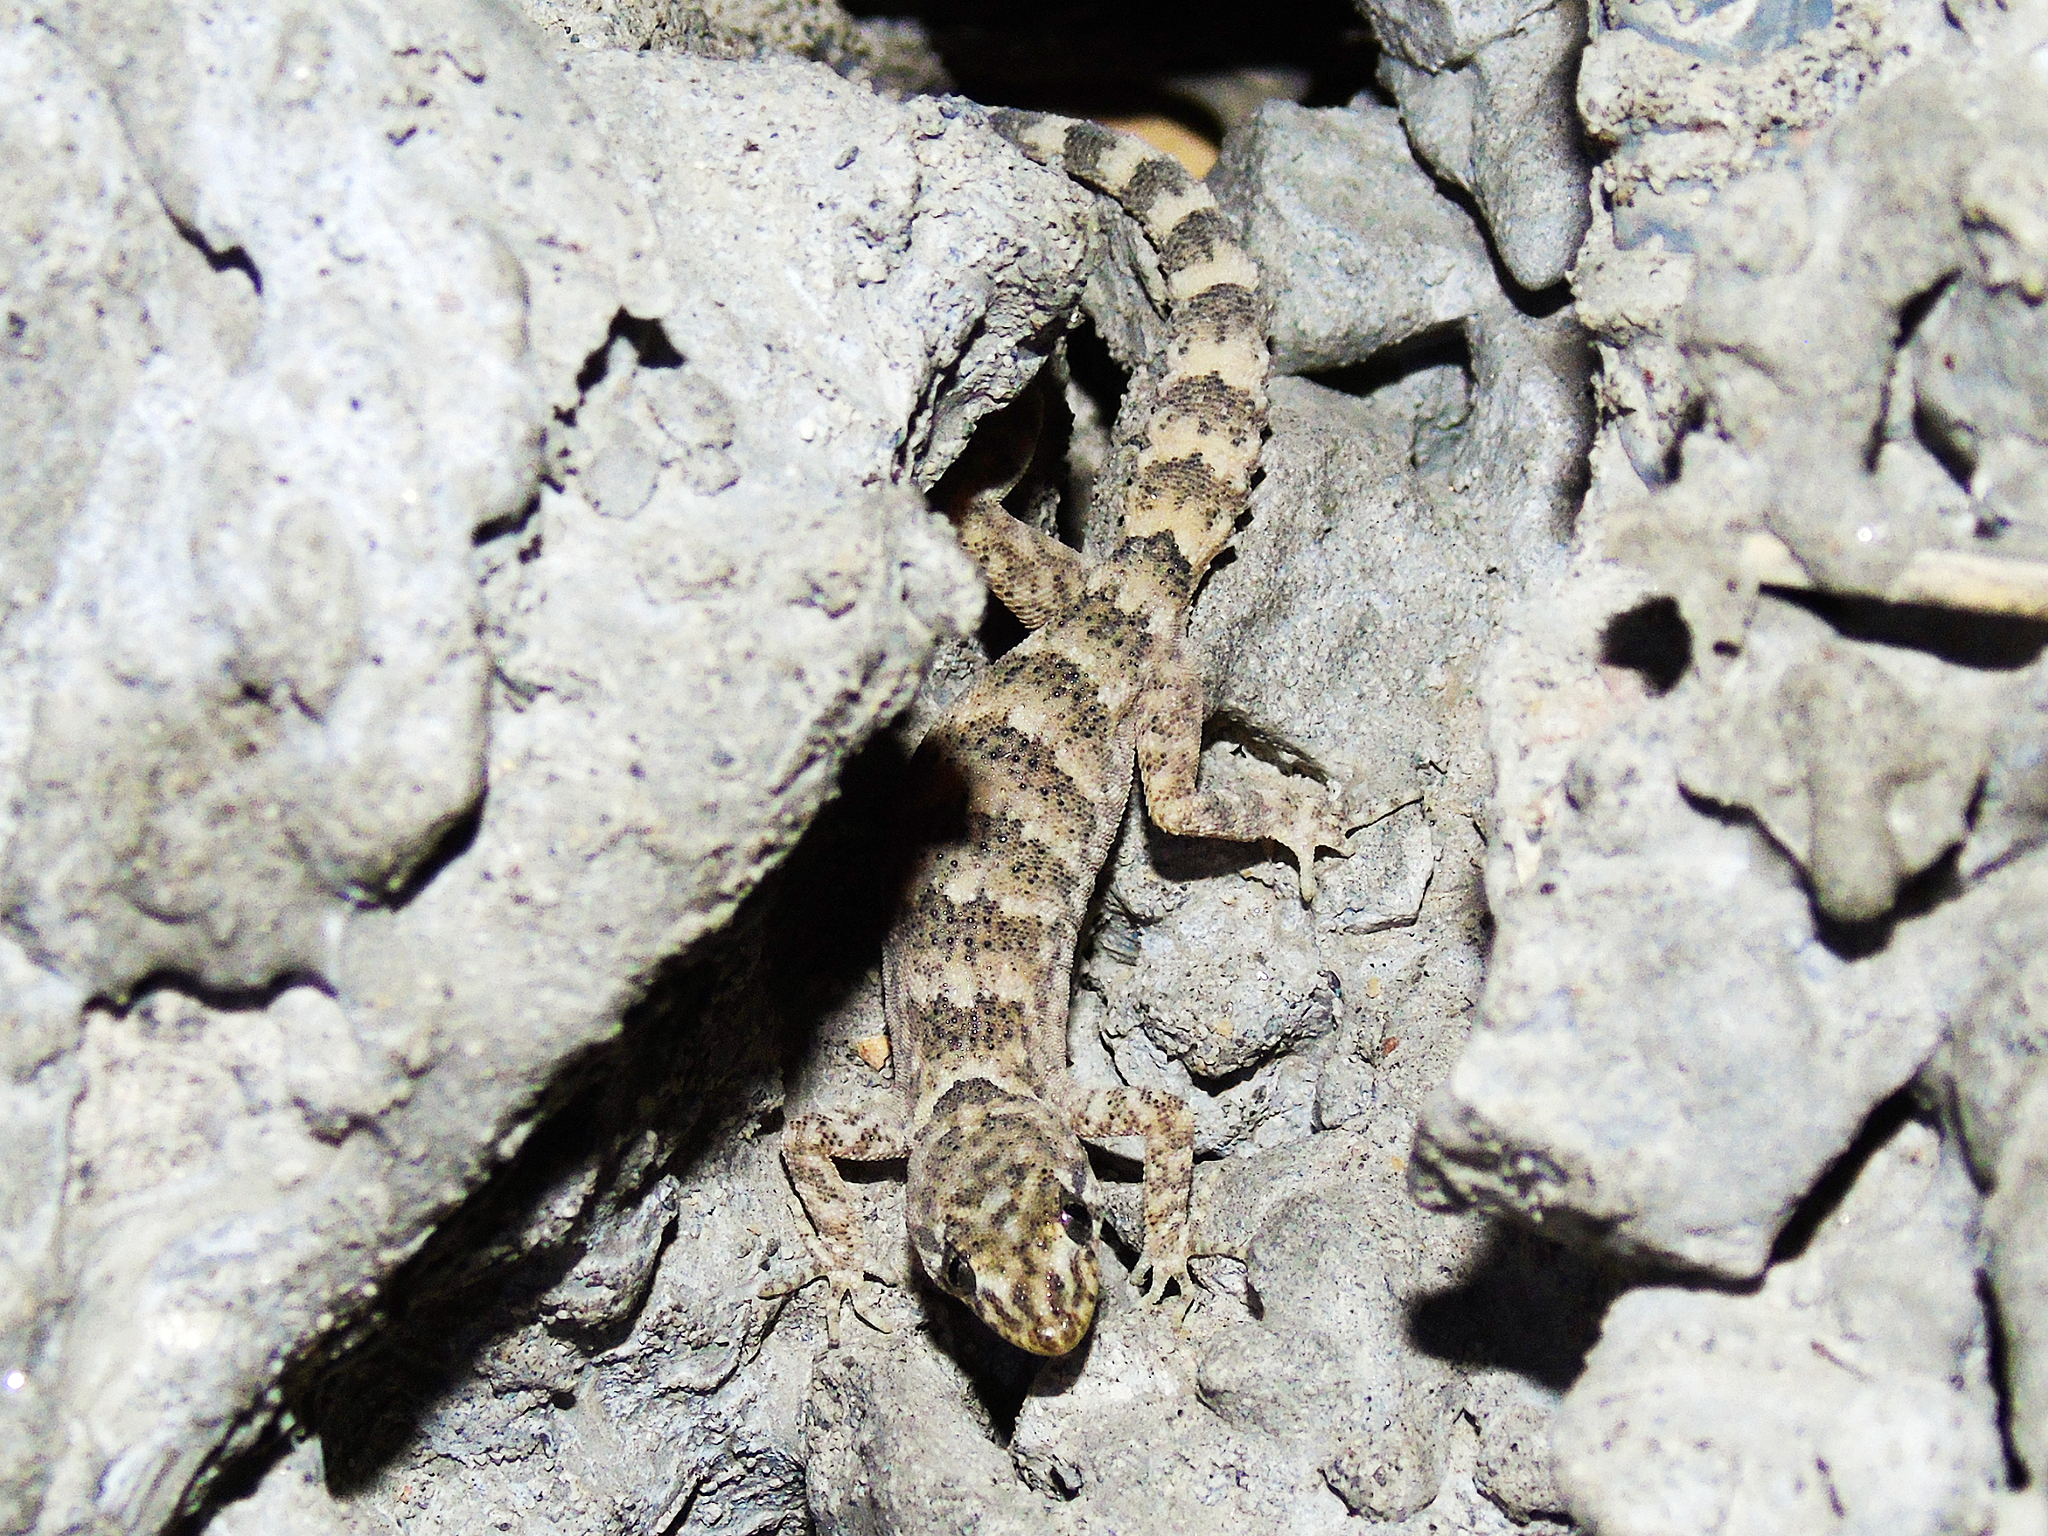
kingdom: Animalia
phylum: Chordata
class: Squamata
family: Gekkonidae
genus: Altiphylax
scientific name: Altiphylax stoliczkai
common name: Frontier bow-fingered gecko
